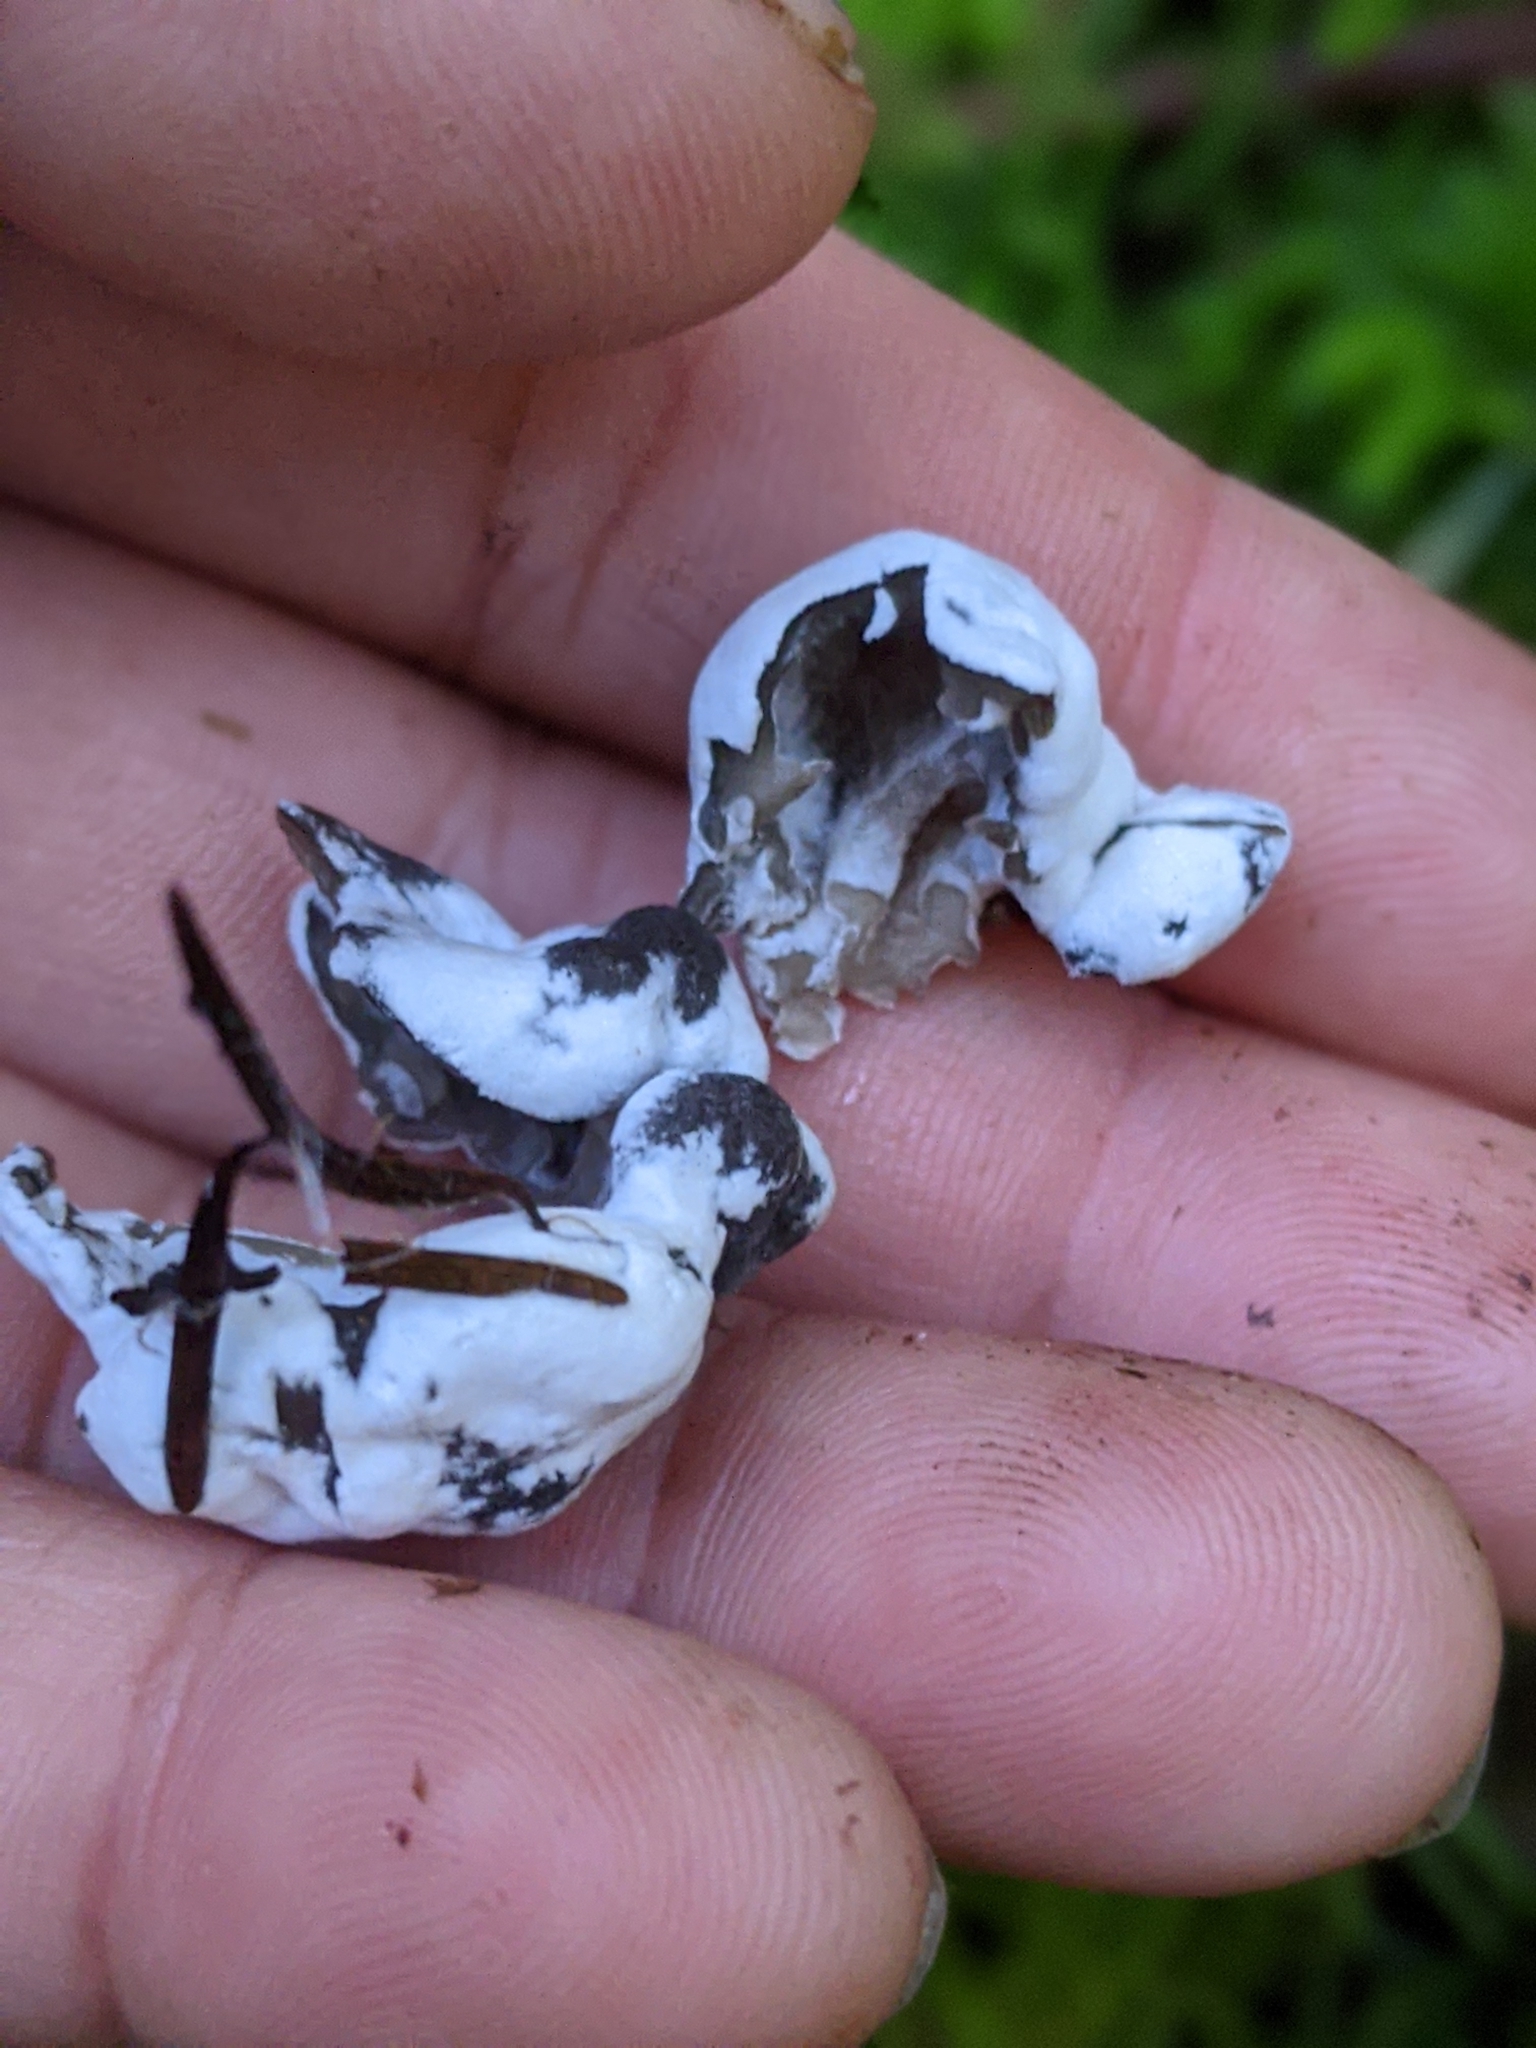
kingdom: Fungi
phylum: Ascomycota
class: Sordariomycetes
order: Hypocreales
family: Hypocreaceae
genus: Hypomyces
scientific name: Hypomyces cervinus
